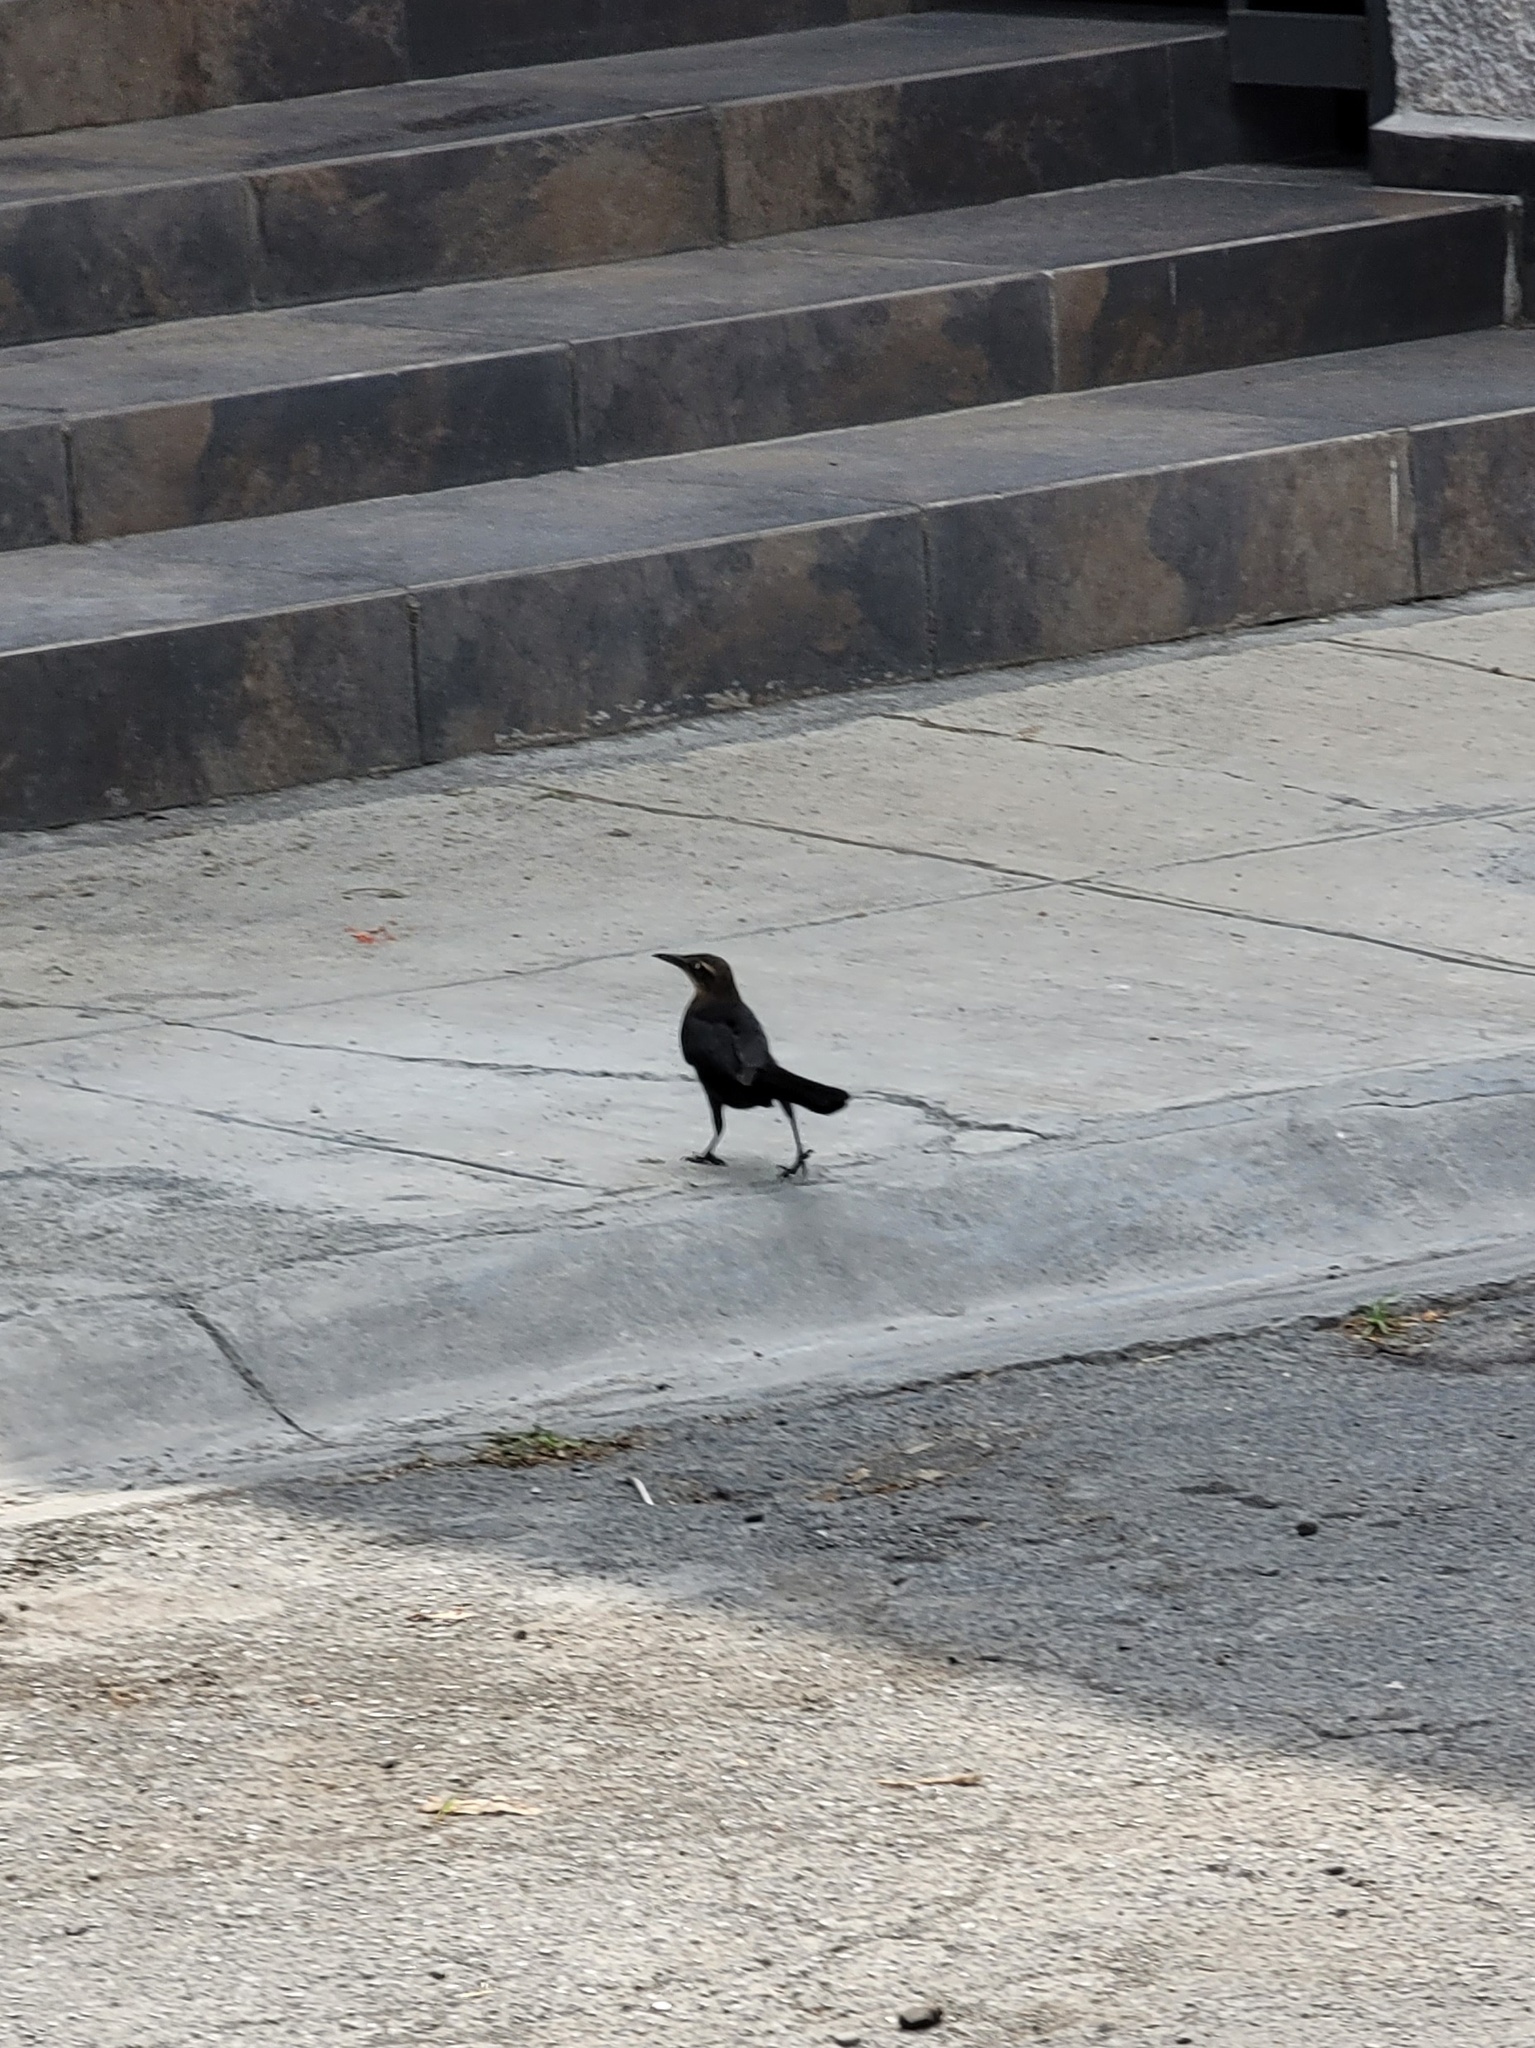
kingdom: Animalia
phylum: Chordata
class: Aves
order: Passeriformes
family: Icteridae
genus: Quiscalus
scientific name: Quiscalus mexicanus
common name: Great-tailed grackle
